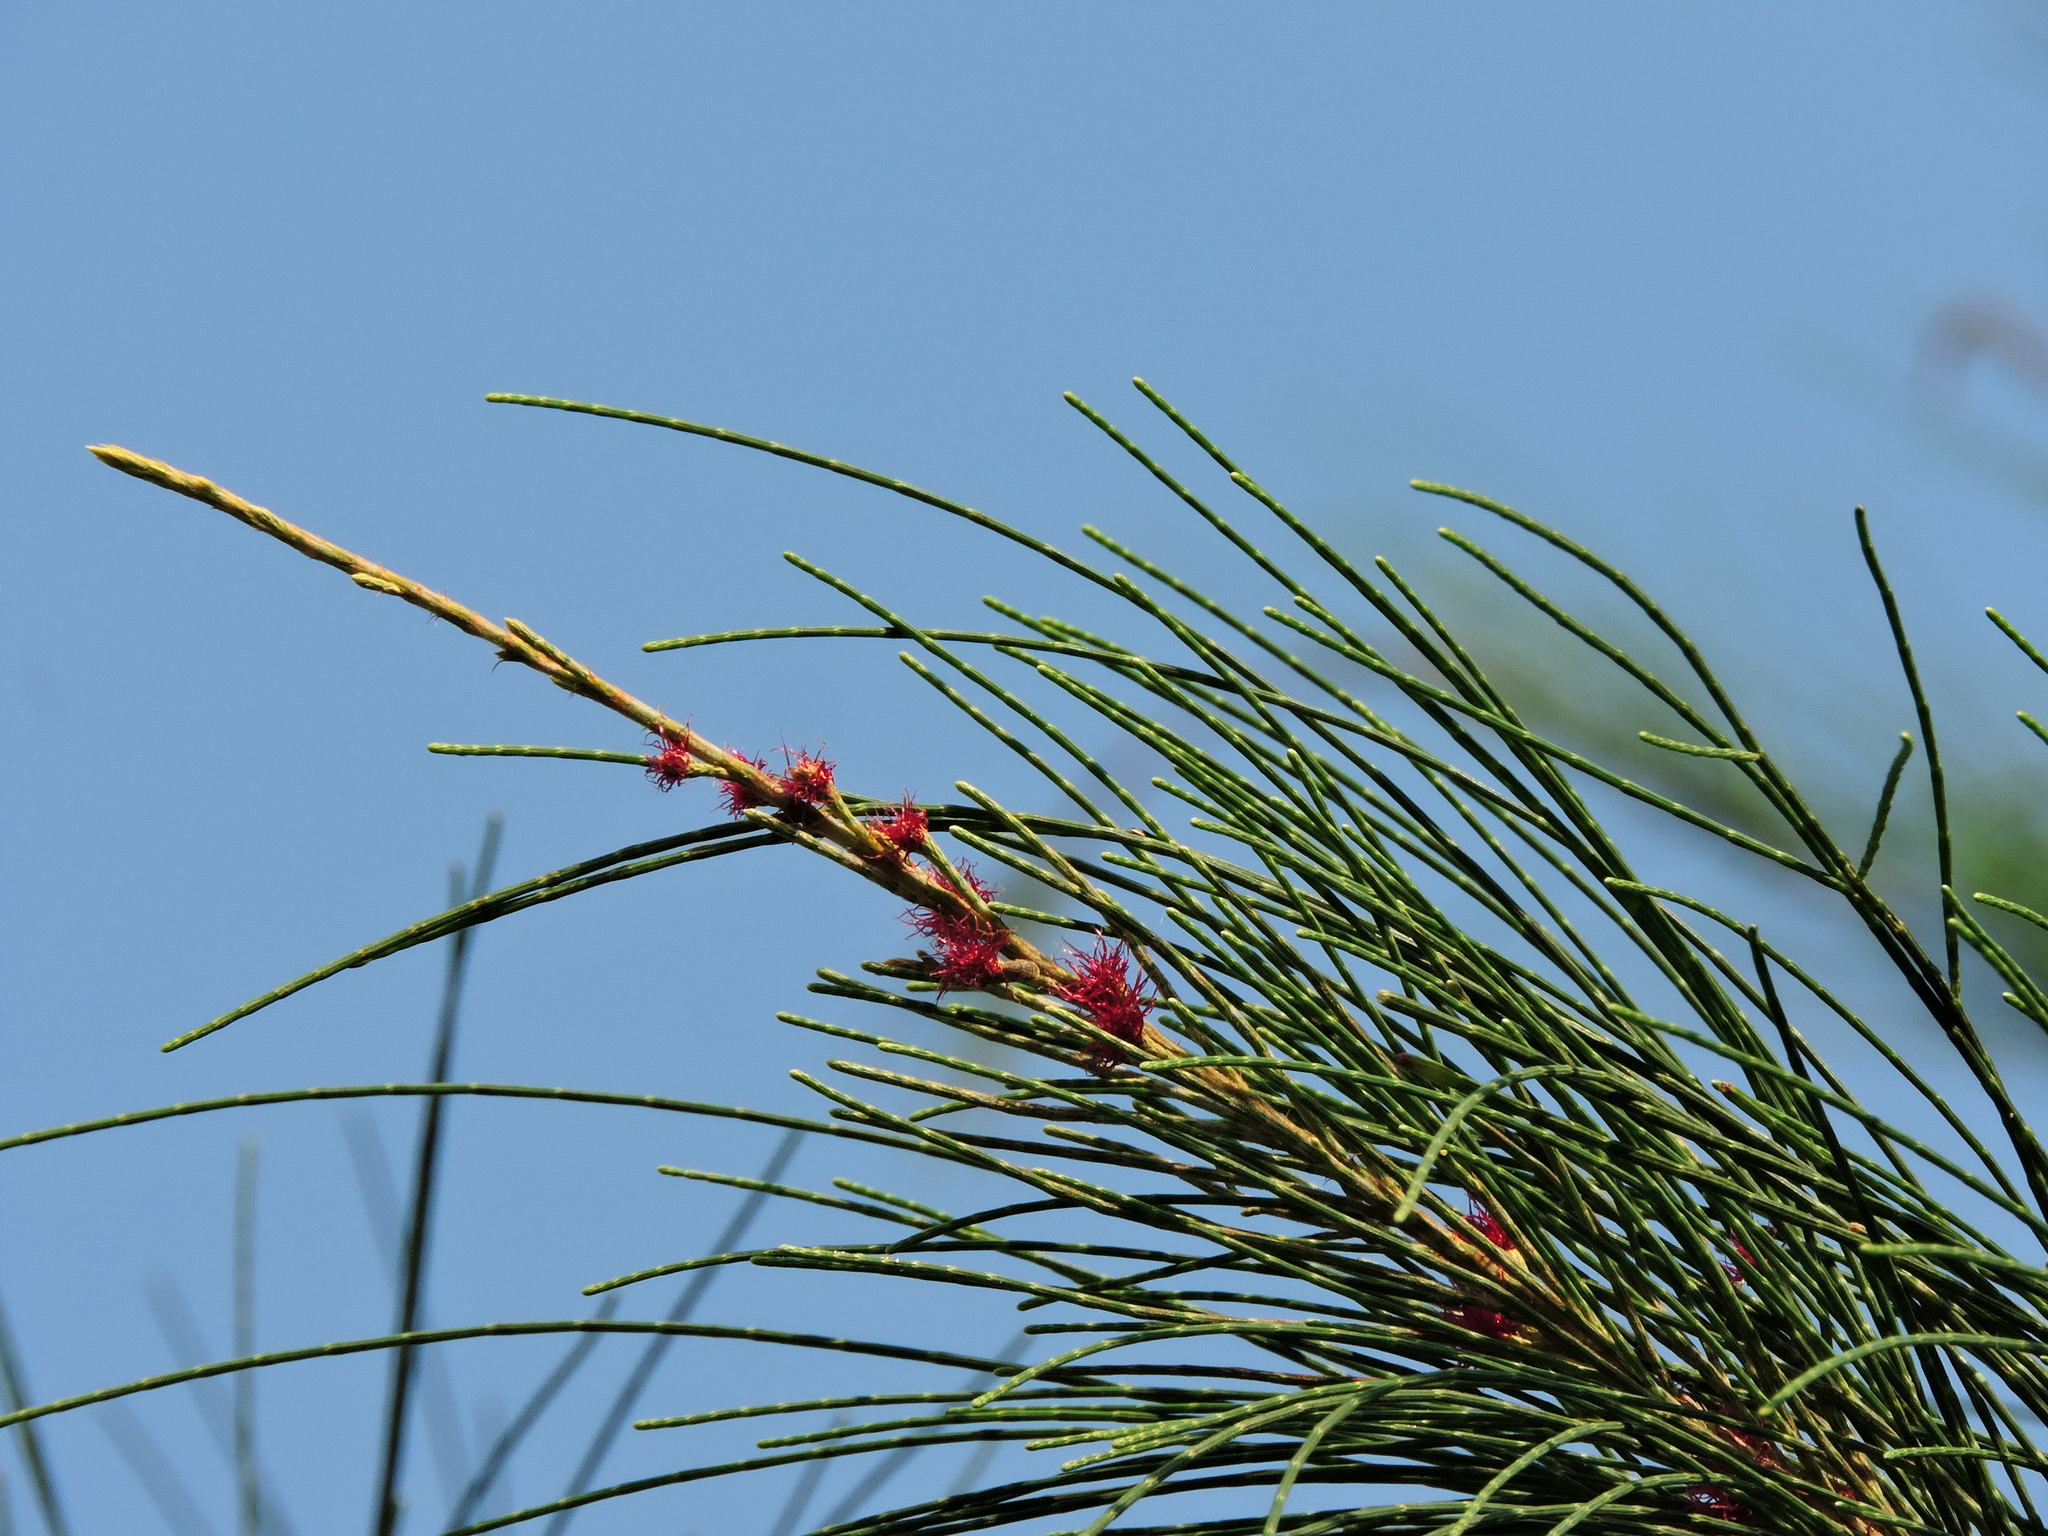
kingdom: Plantae
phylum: Tracheophyta
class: Magnoliopsida
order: Fagales
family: Casuarinaceae
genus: Casuarina
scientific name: Casuarina equisetifolia
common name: Beach sheoak
